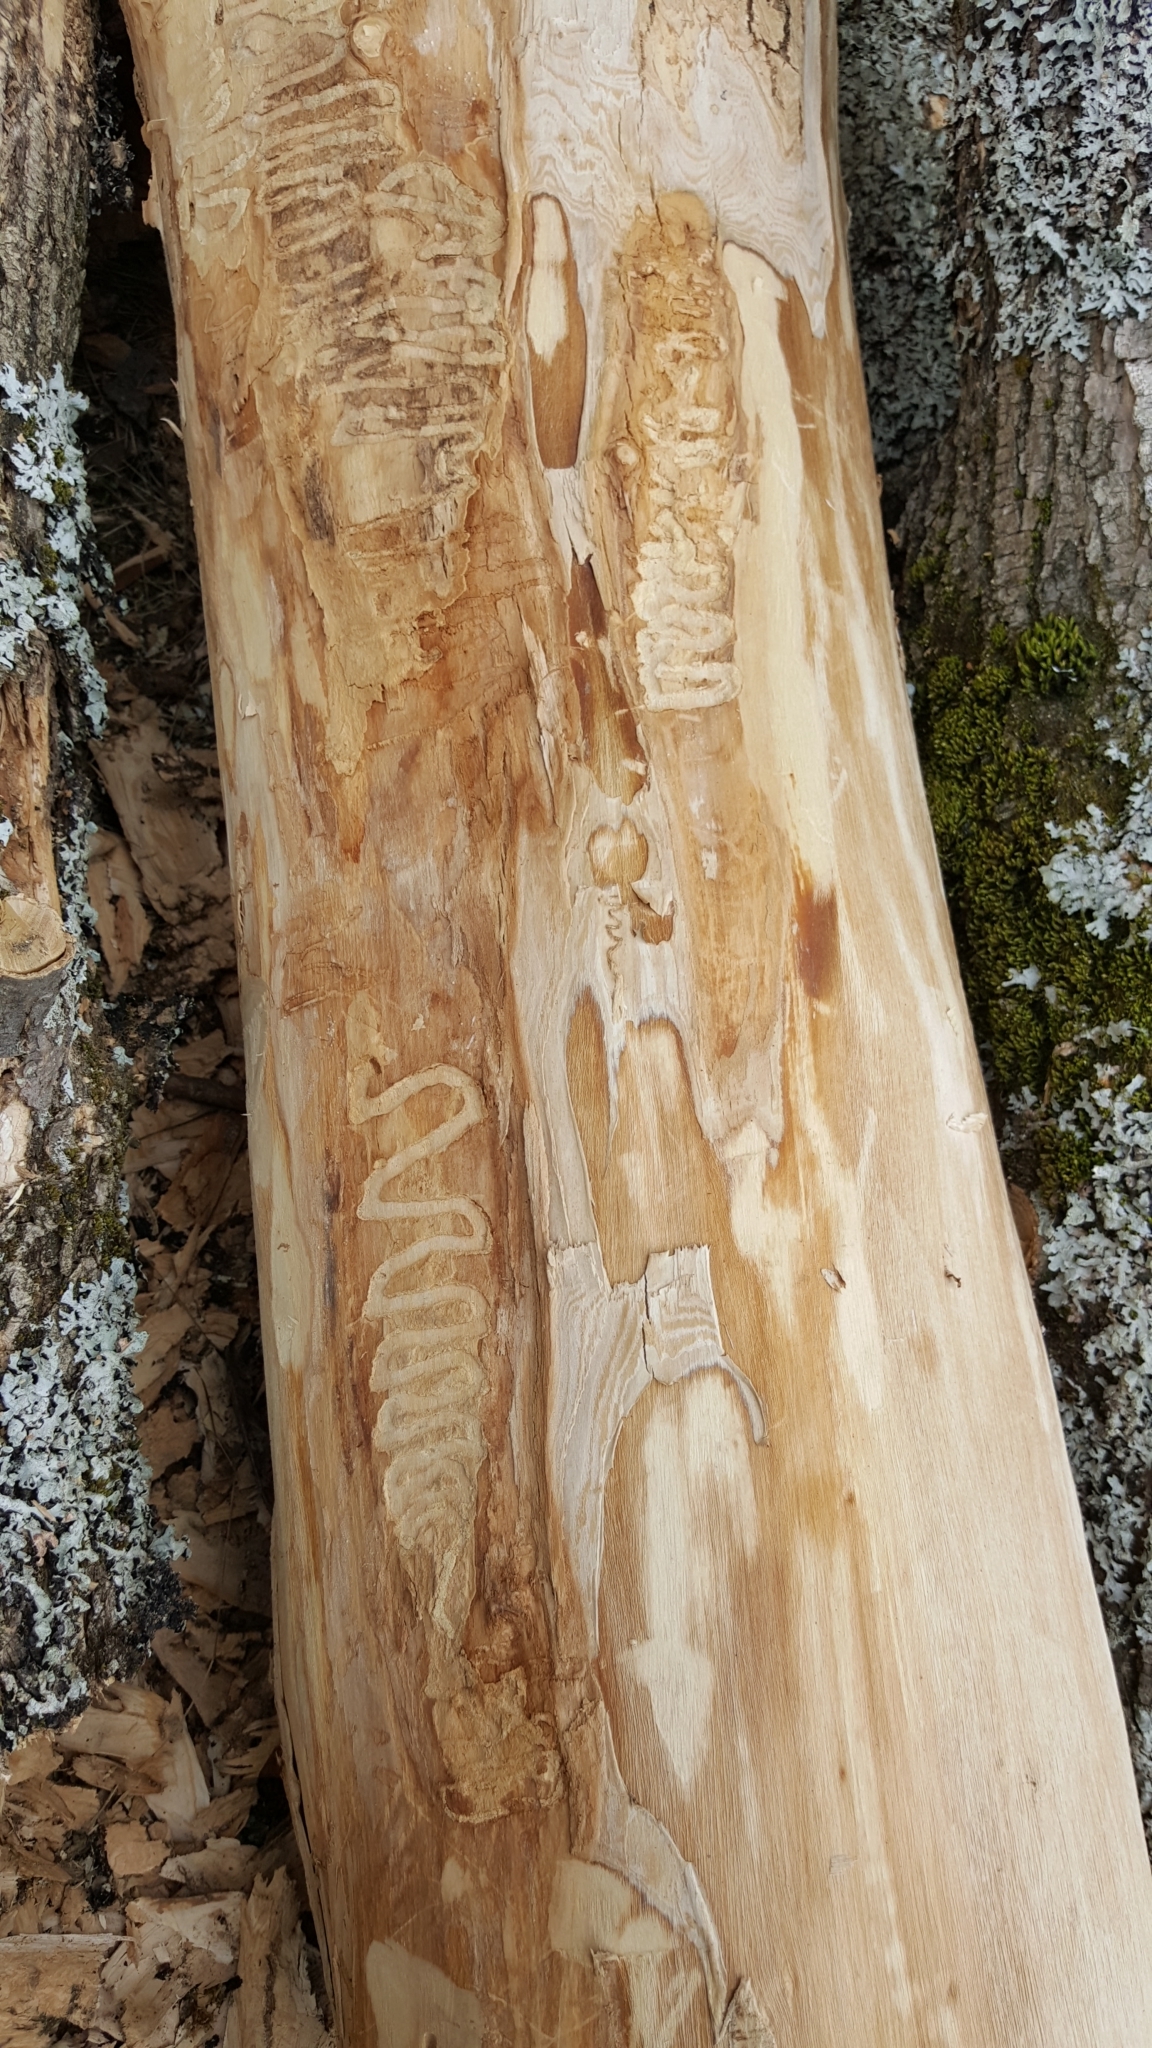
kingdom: Animalia
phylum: Arthropoda
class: Insecta
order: Coleoptera
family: Buprestidae
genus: Agrilus
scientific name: Agrilus planipennis
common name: Emerald ash borer
